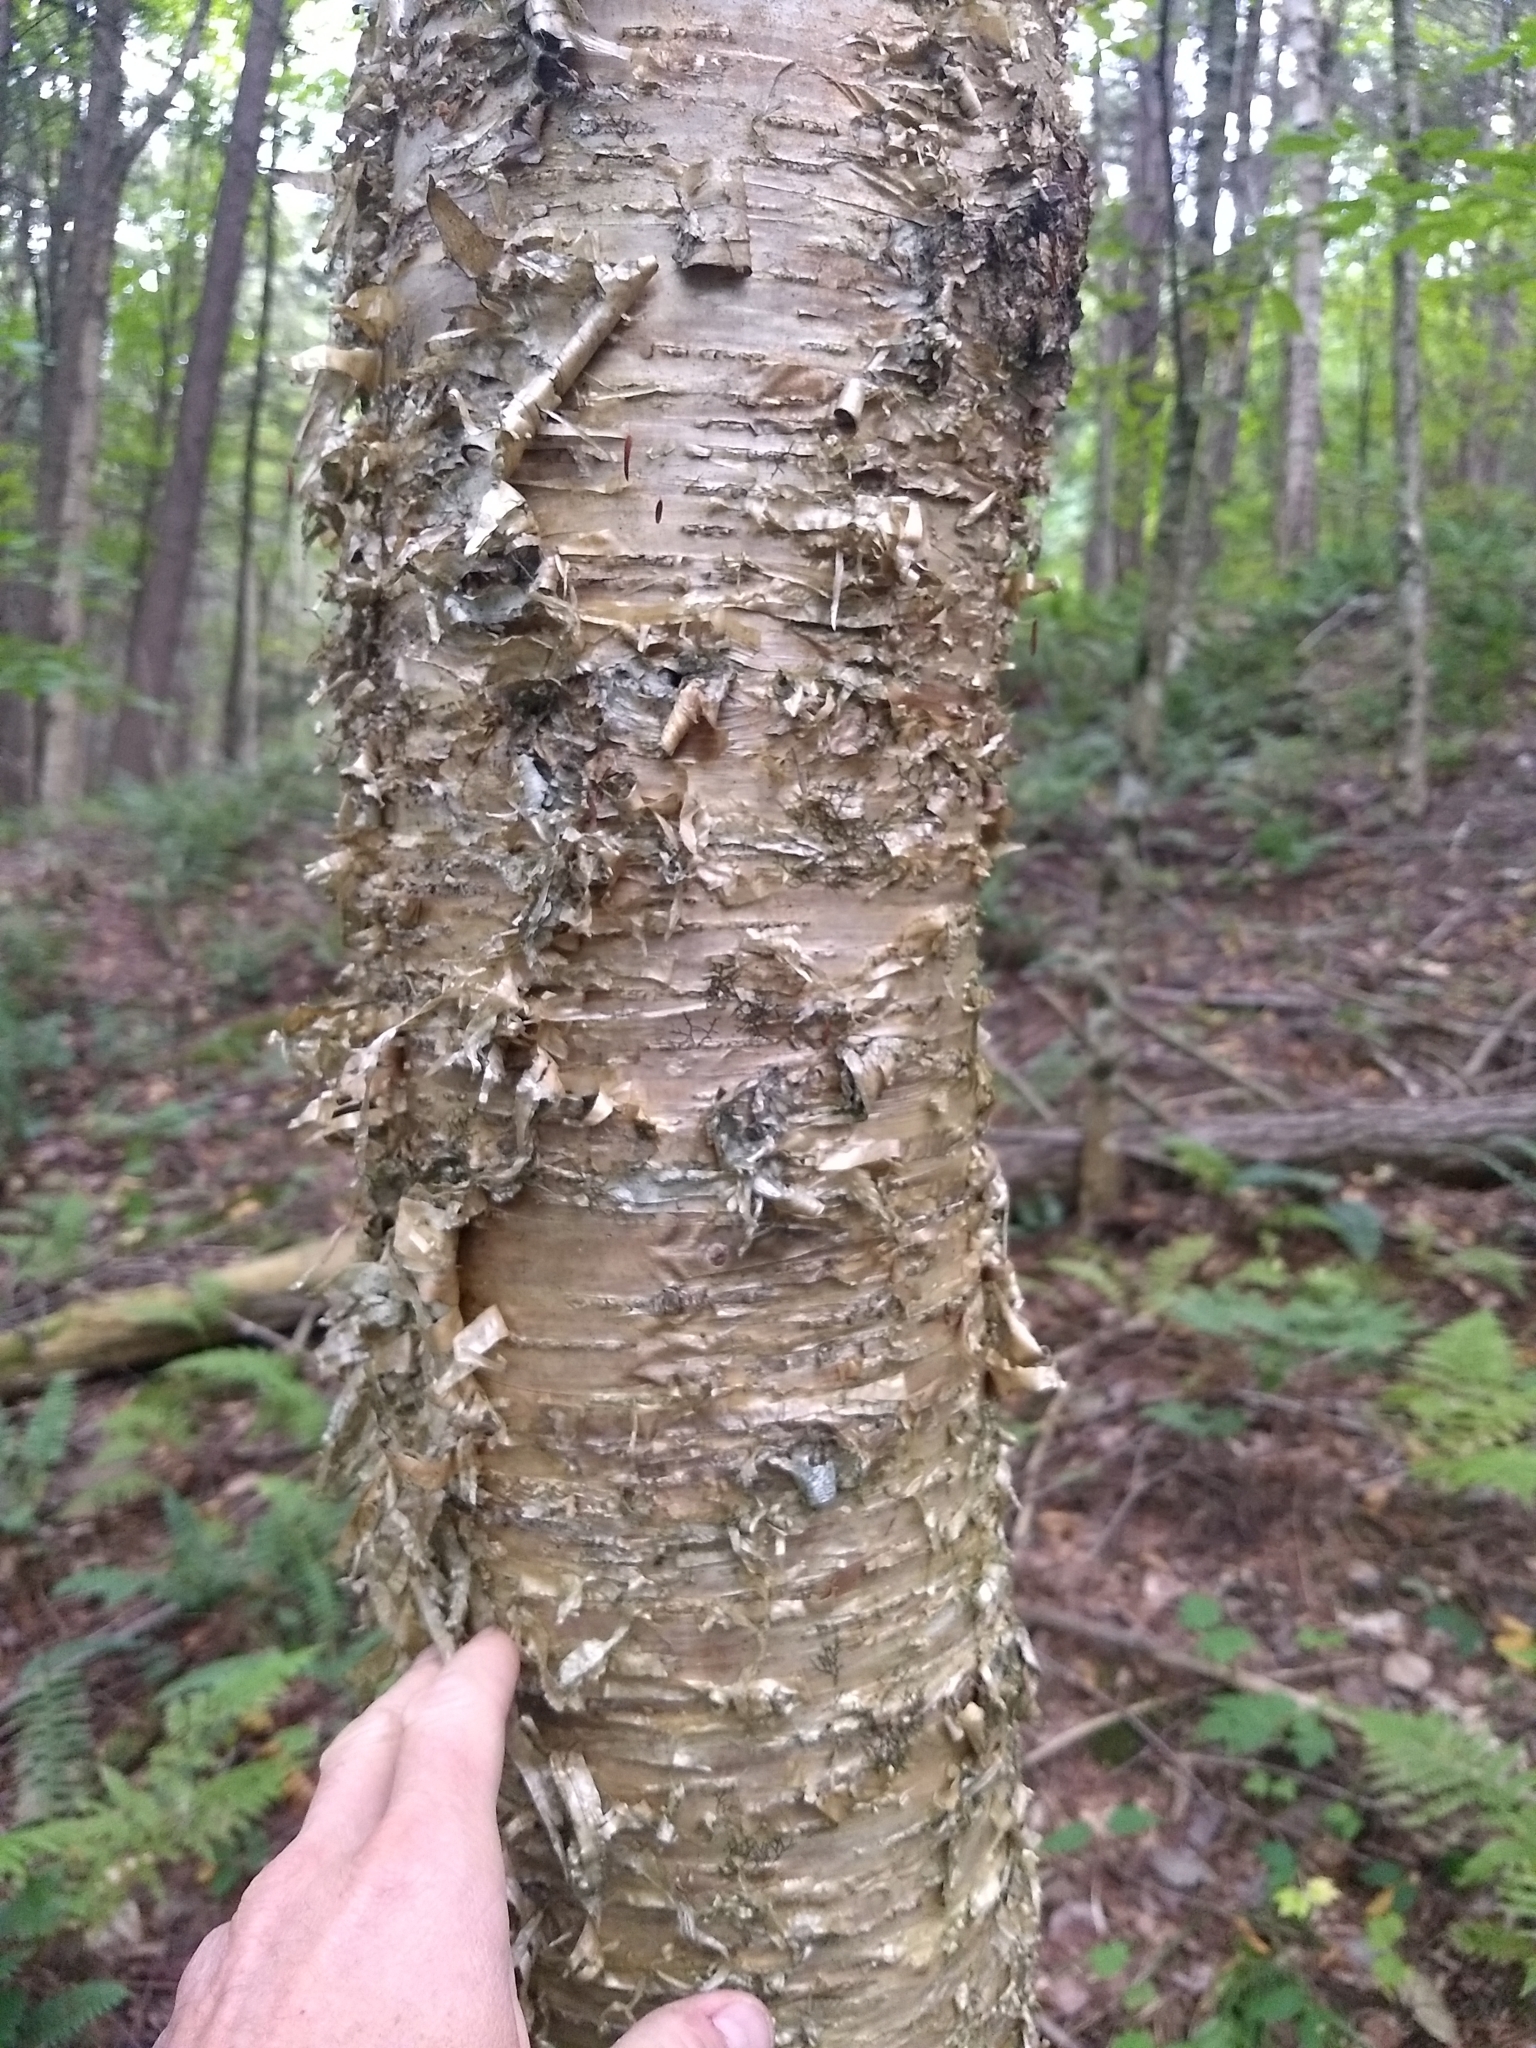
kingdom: Plantae
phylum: Tracheophyta
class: Magnoliopsida
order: Fagales
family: Betulaceae
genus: Betula
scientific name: Betula alleghaniensis
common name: Yellow birch
